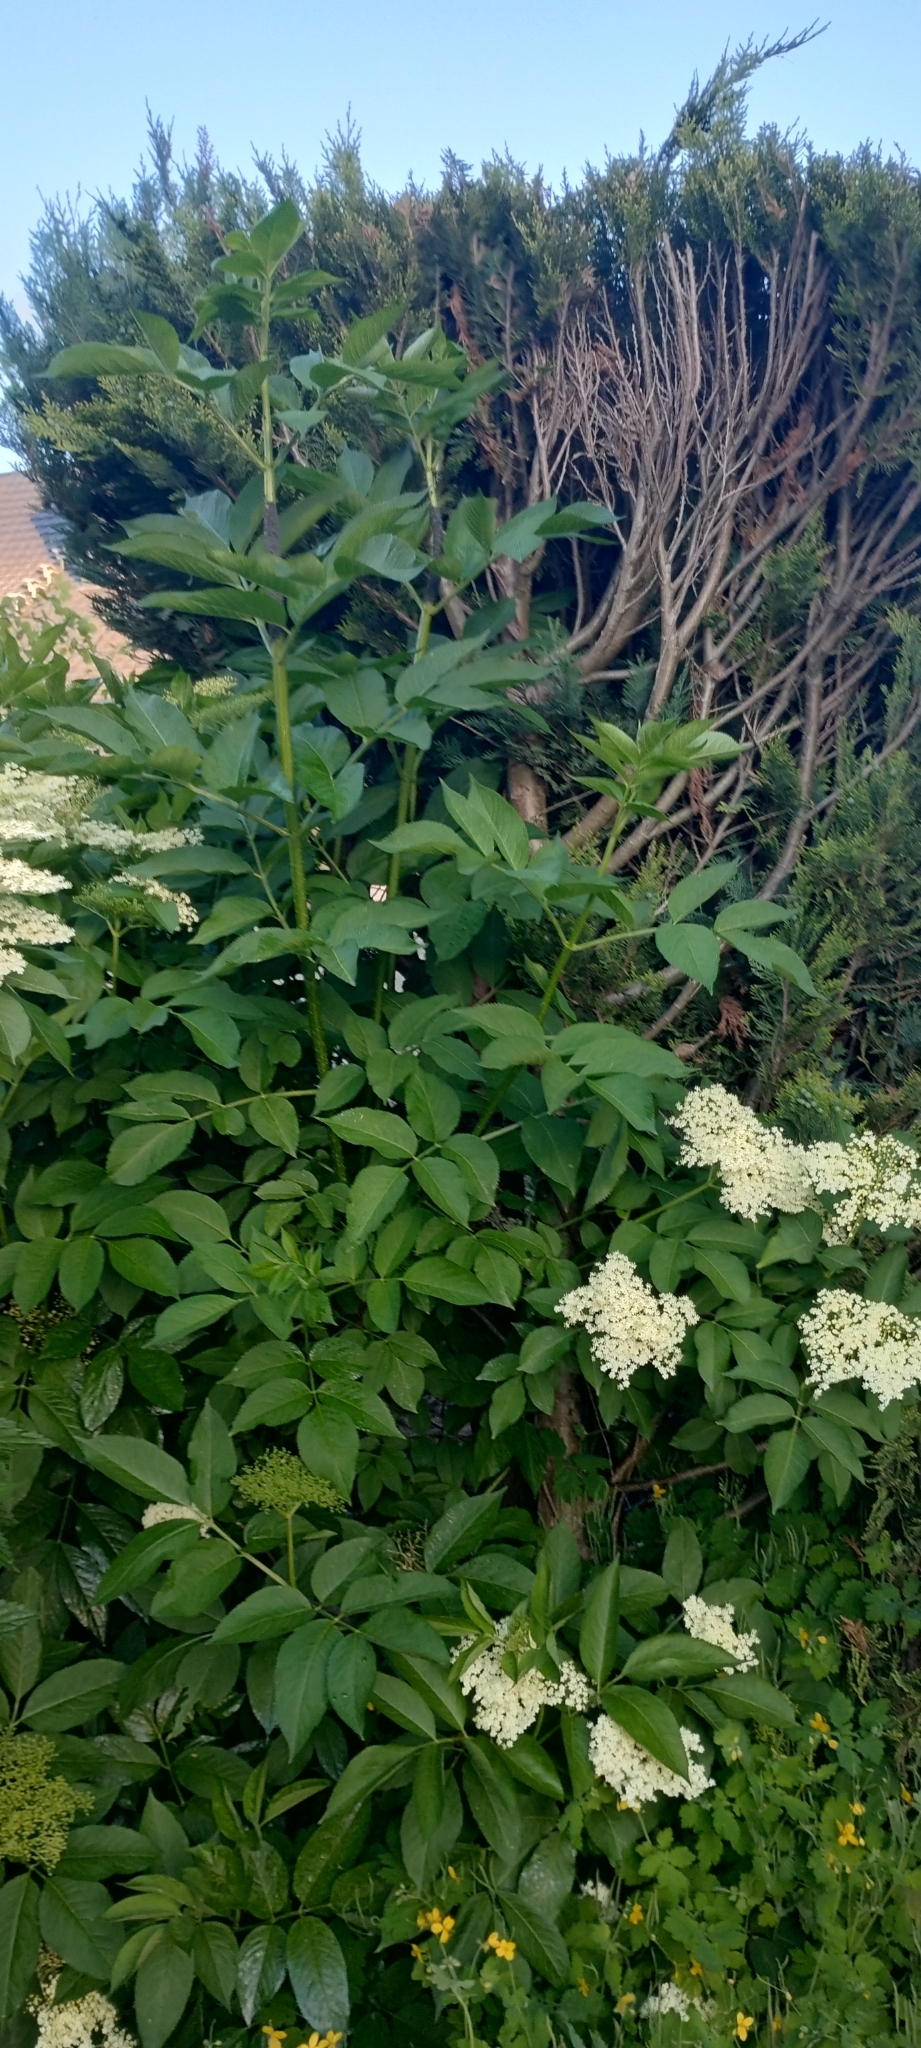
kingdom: Plantae
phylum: Tracheophyta
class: Magnoliopsida
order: Dipsacales
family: Viburnaceae
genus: Sambucus
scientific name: Sambucus nigra
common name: Elder
